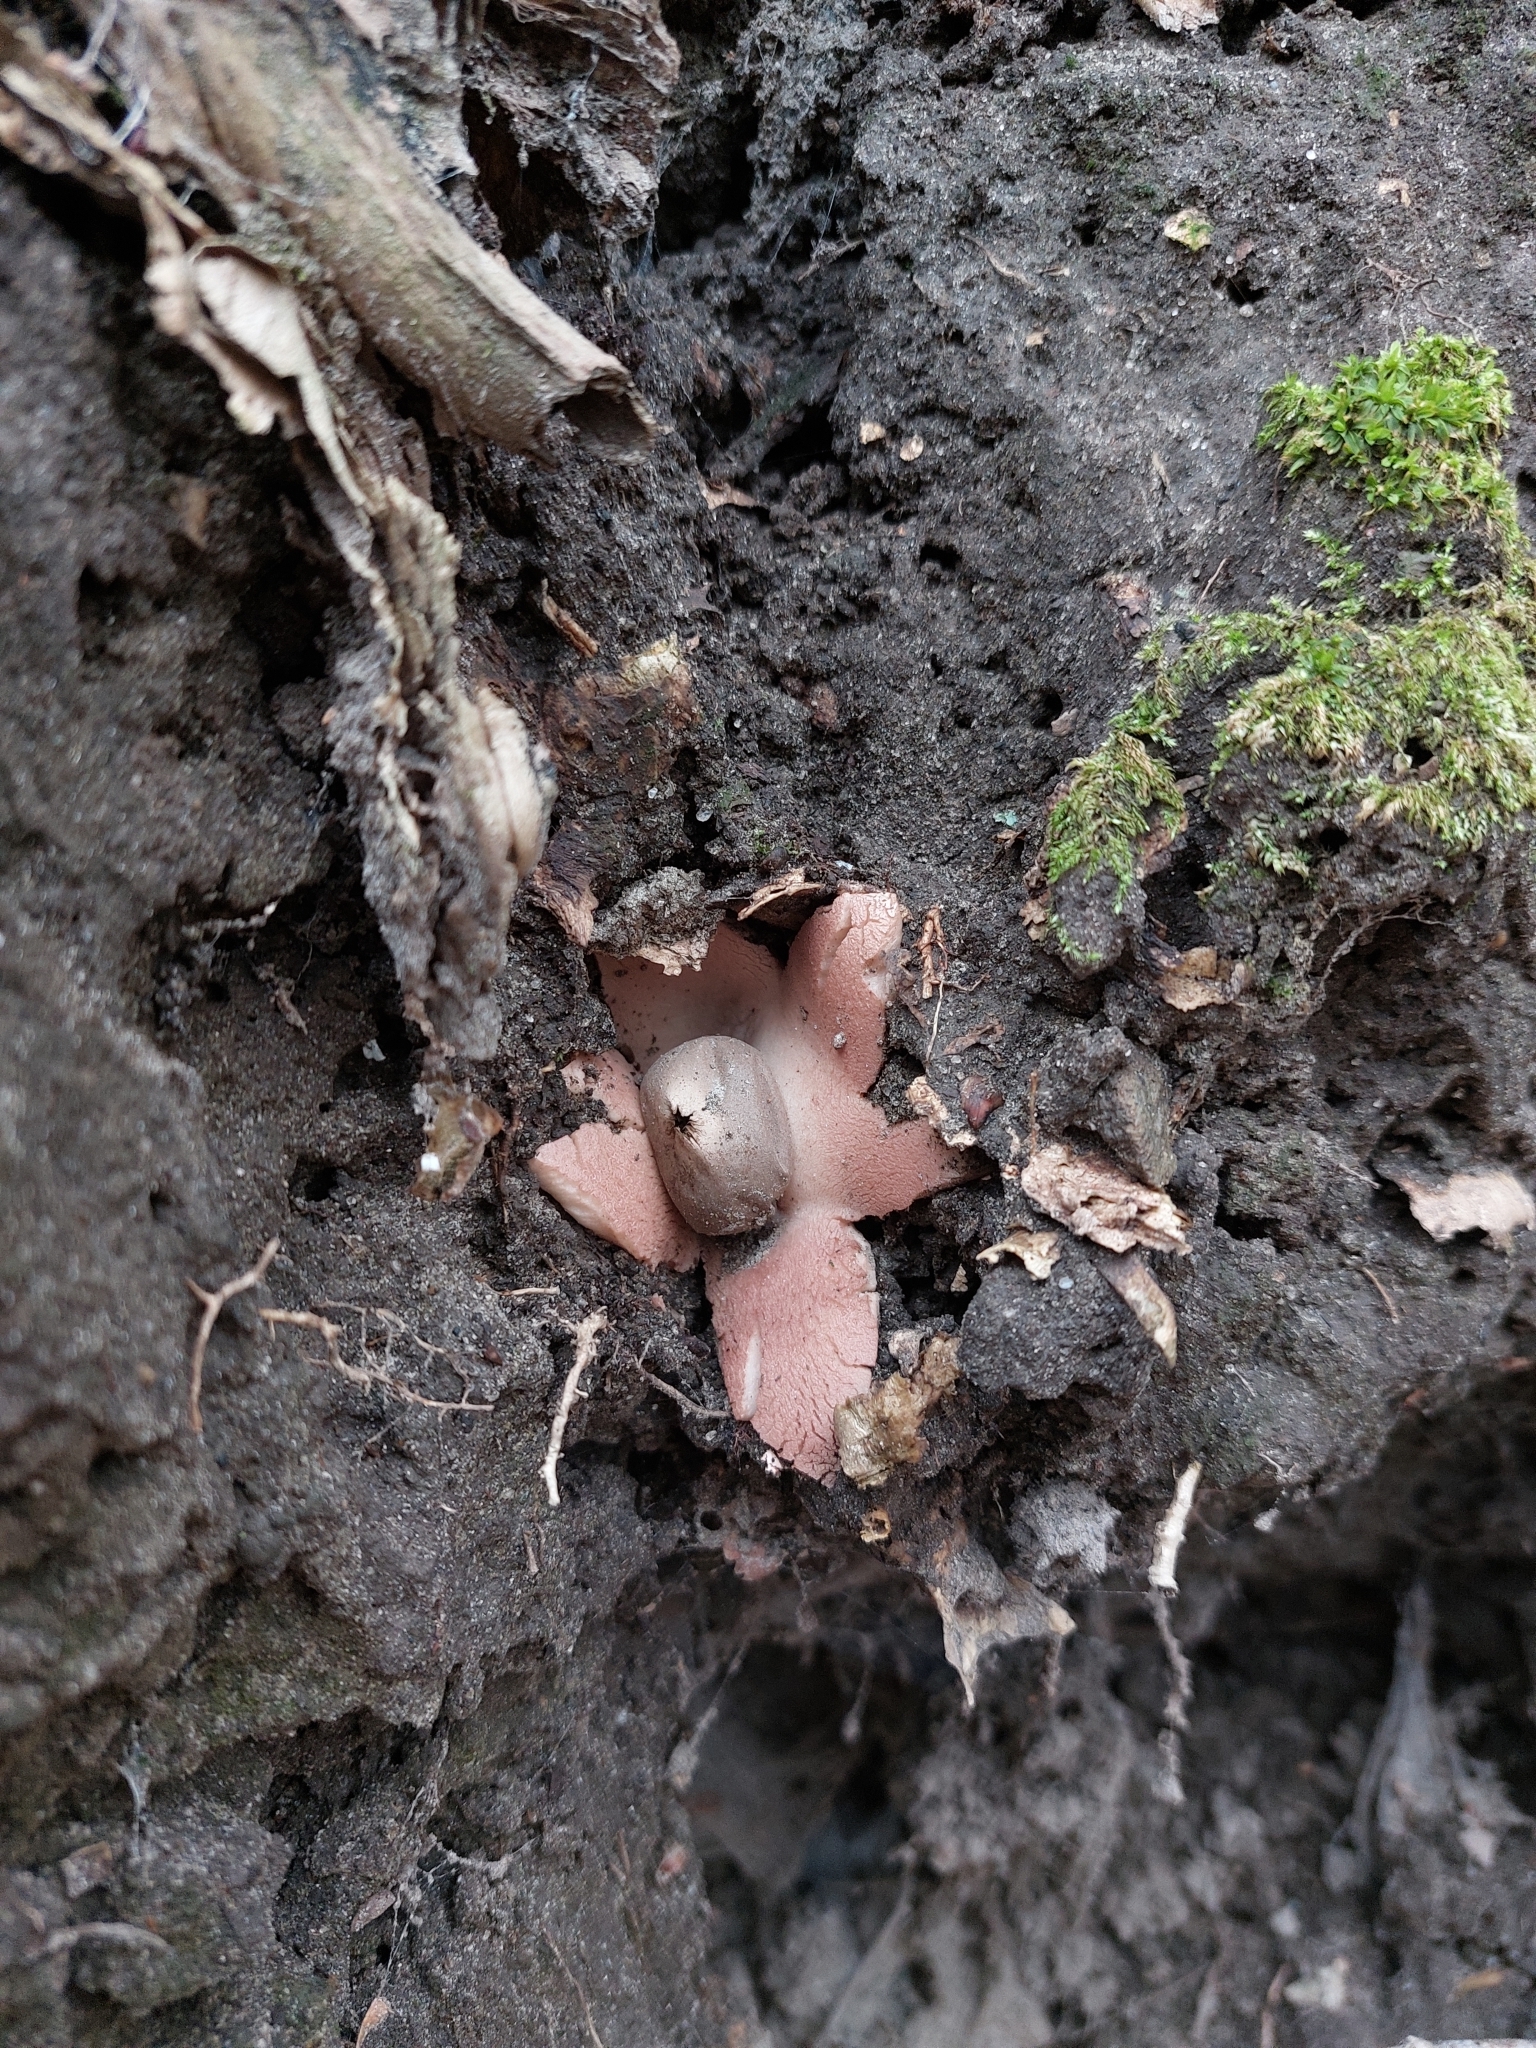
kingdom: Fungi
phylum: Basidiomycota
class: Agaricomycetes
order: Geastrales
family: Geastraceae
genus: Geastrum
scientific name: Geastrum rufescens
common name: Rosy earthstar
